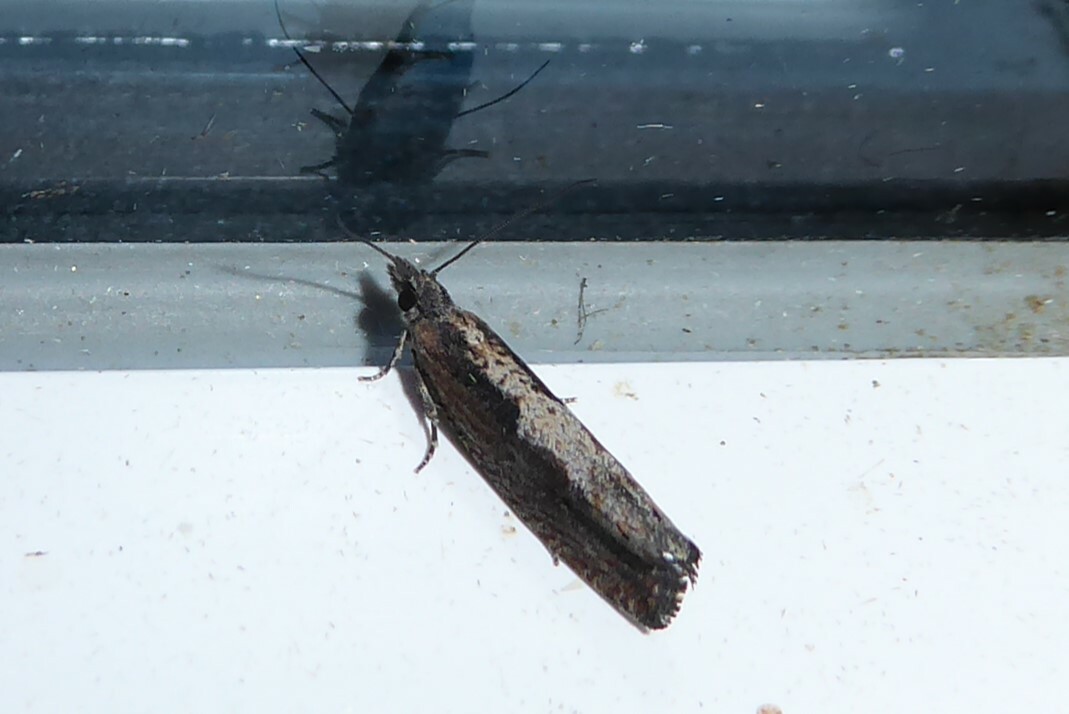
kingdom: Animalia
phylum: Arthropoda
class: Insecta
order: Lepidoptera
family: Tortricidae
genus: Strepsicrates
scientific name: Strepsicrates macropetana
